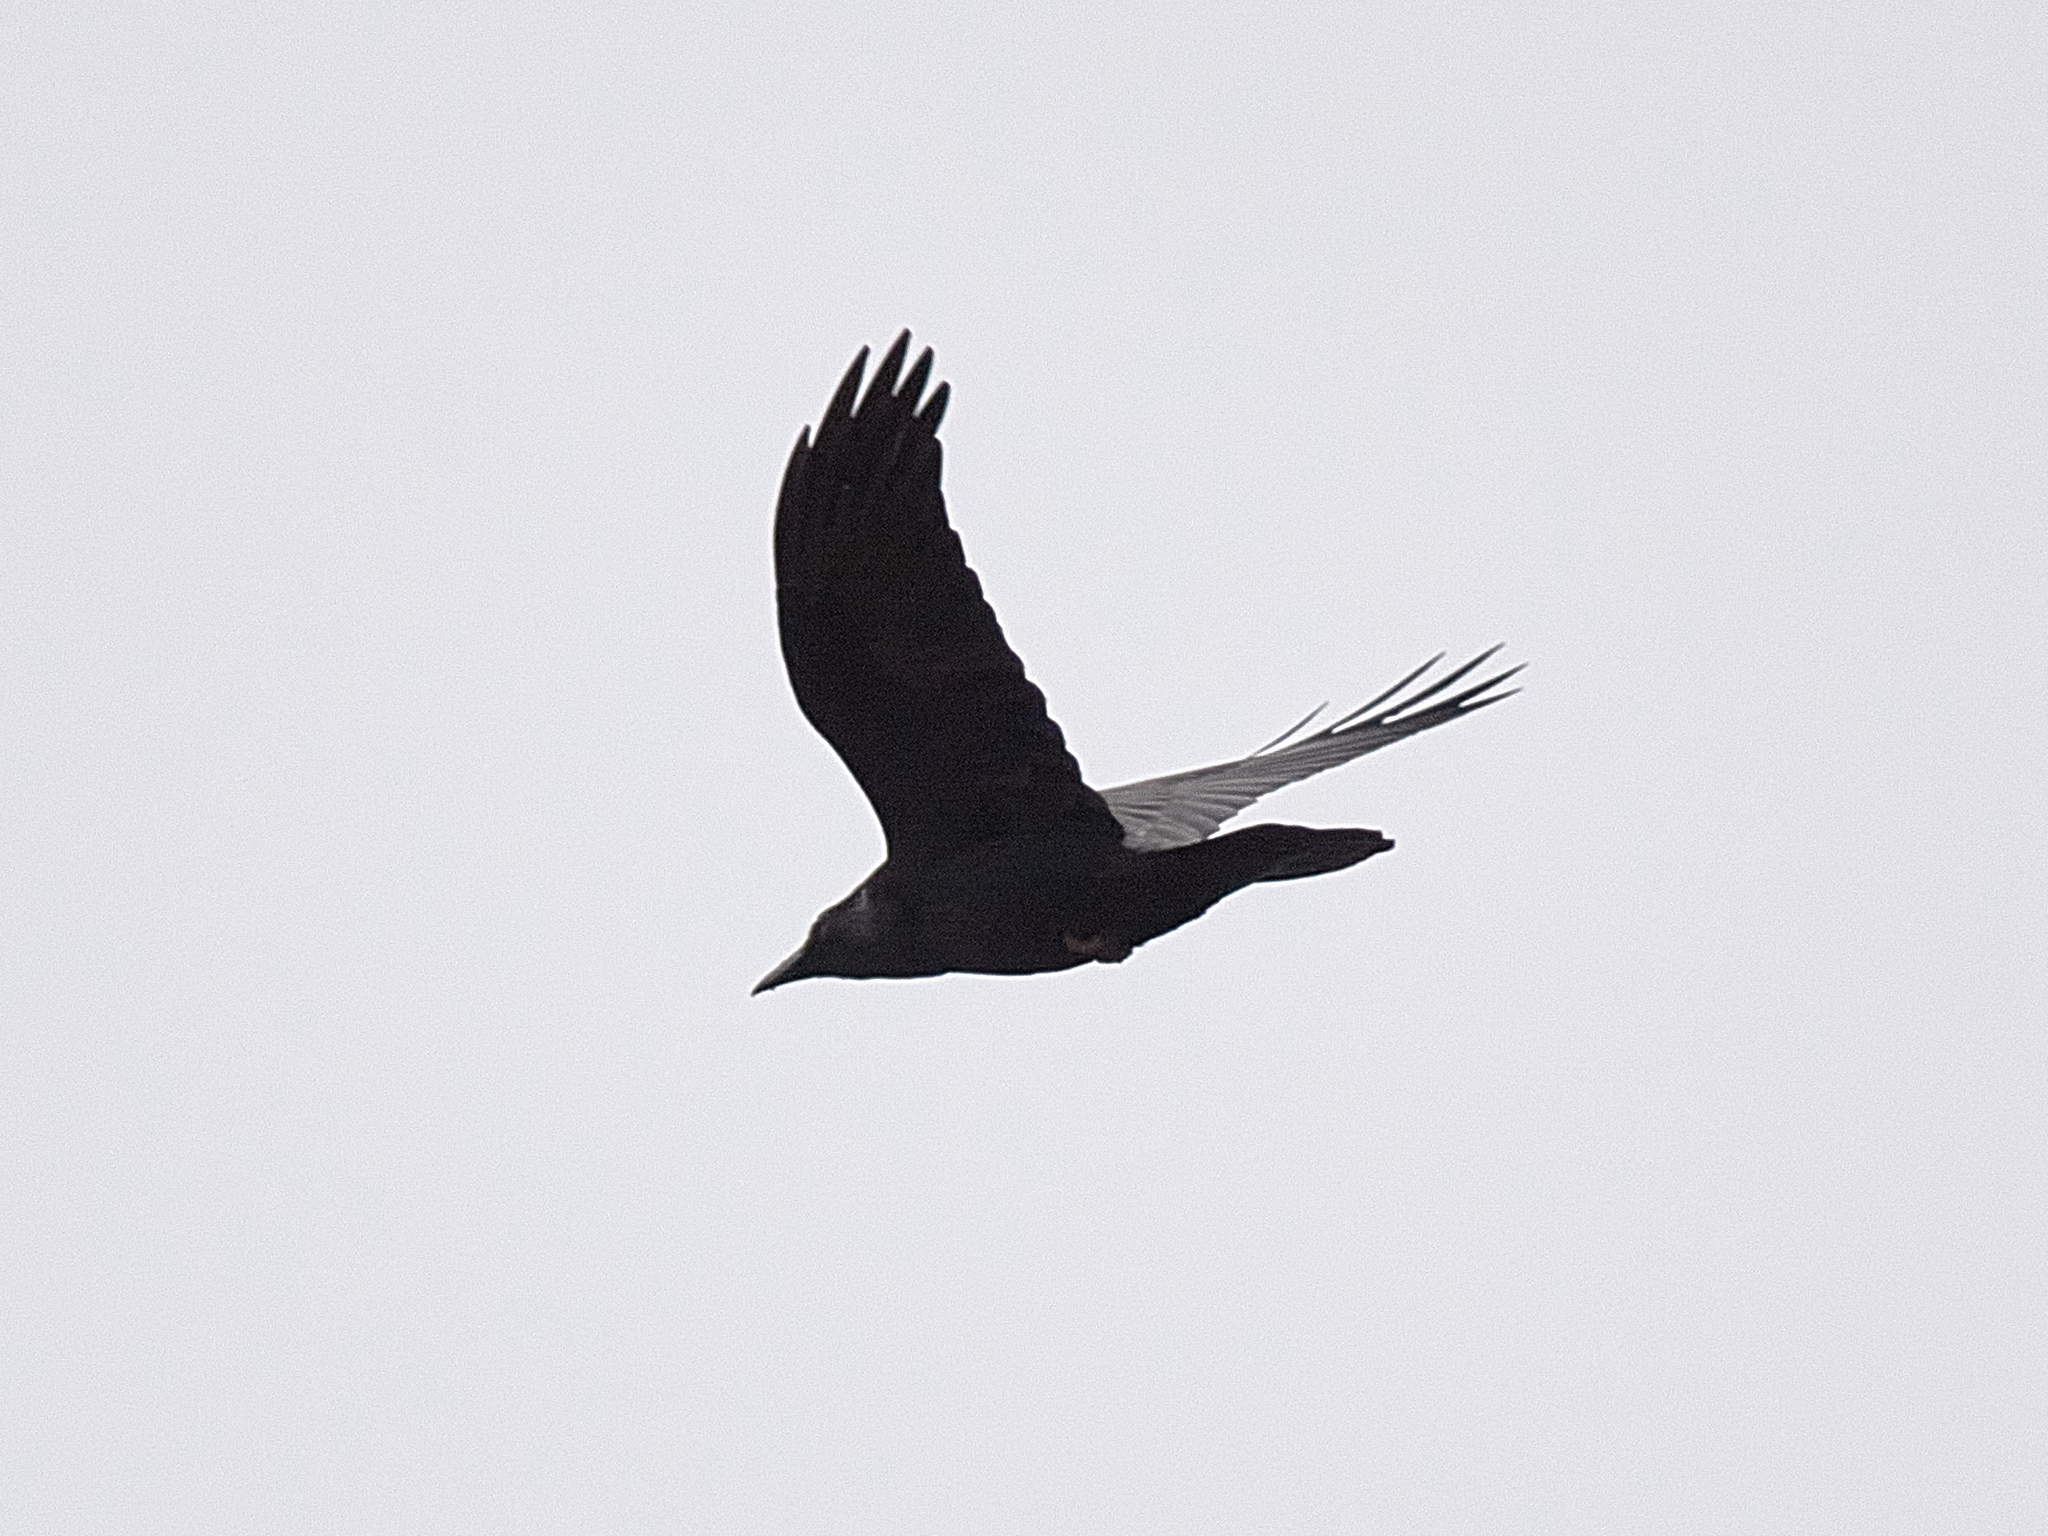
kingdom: Animalia
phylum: Chordata
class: Aves
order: Passeriformes
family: Corvidae
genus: Corvus
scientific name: Corvus corax
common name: Common raven
